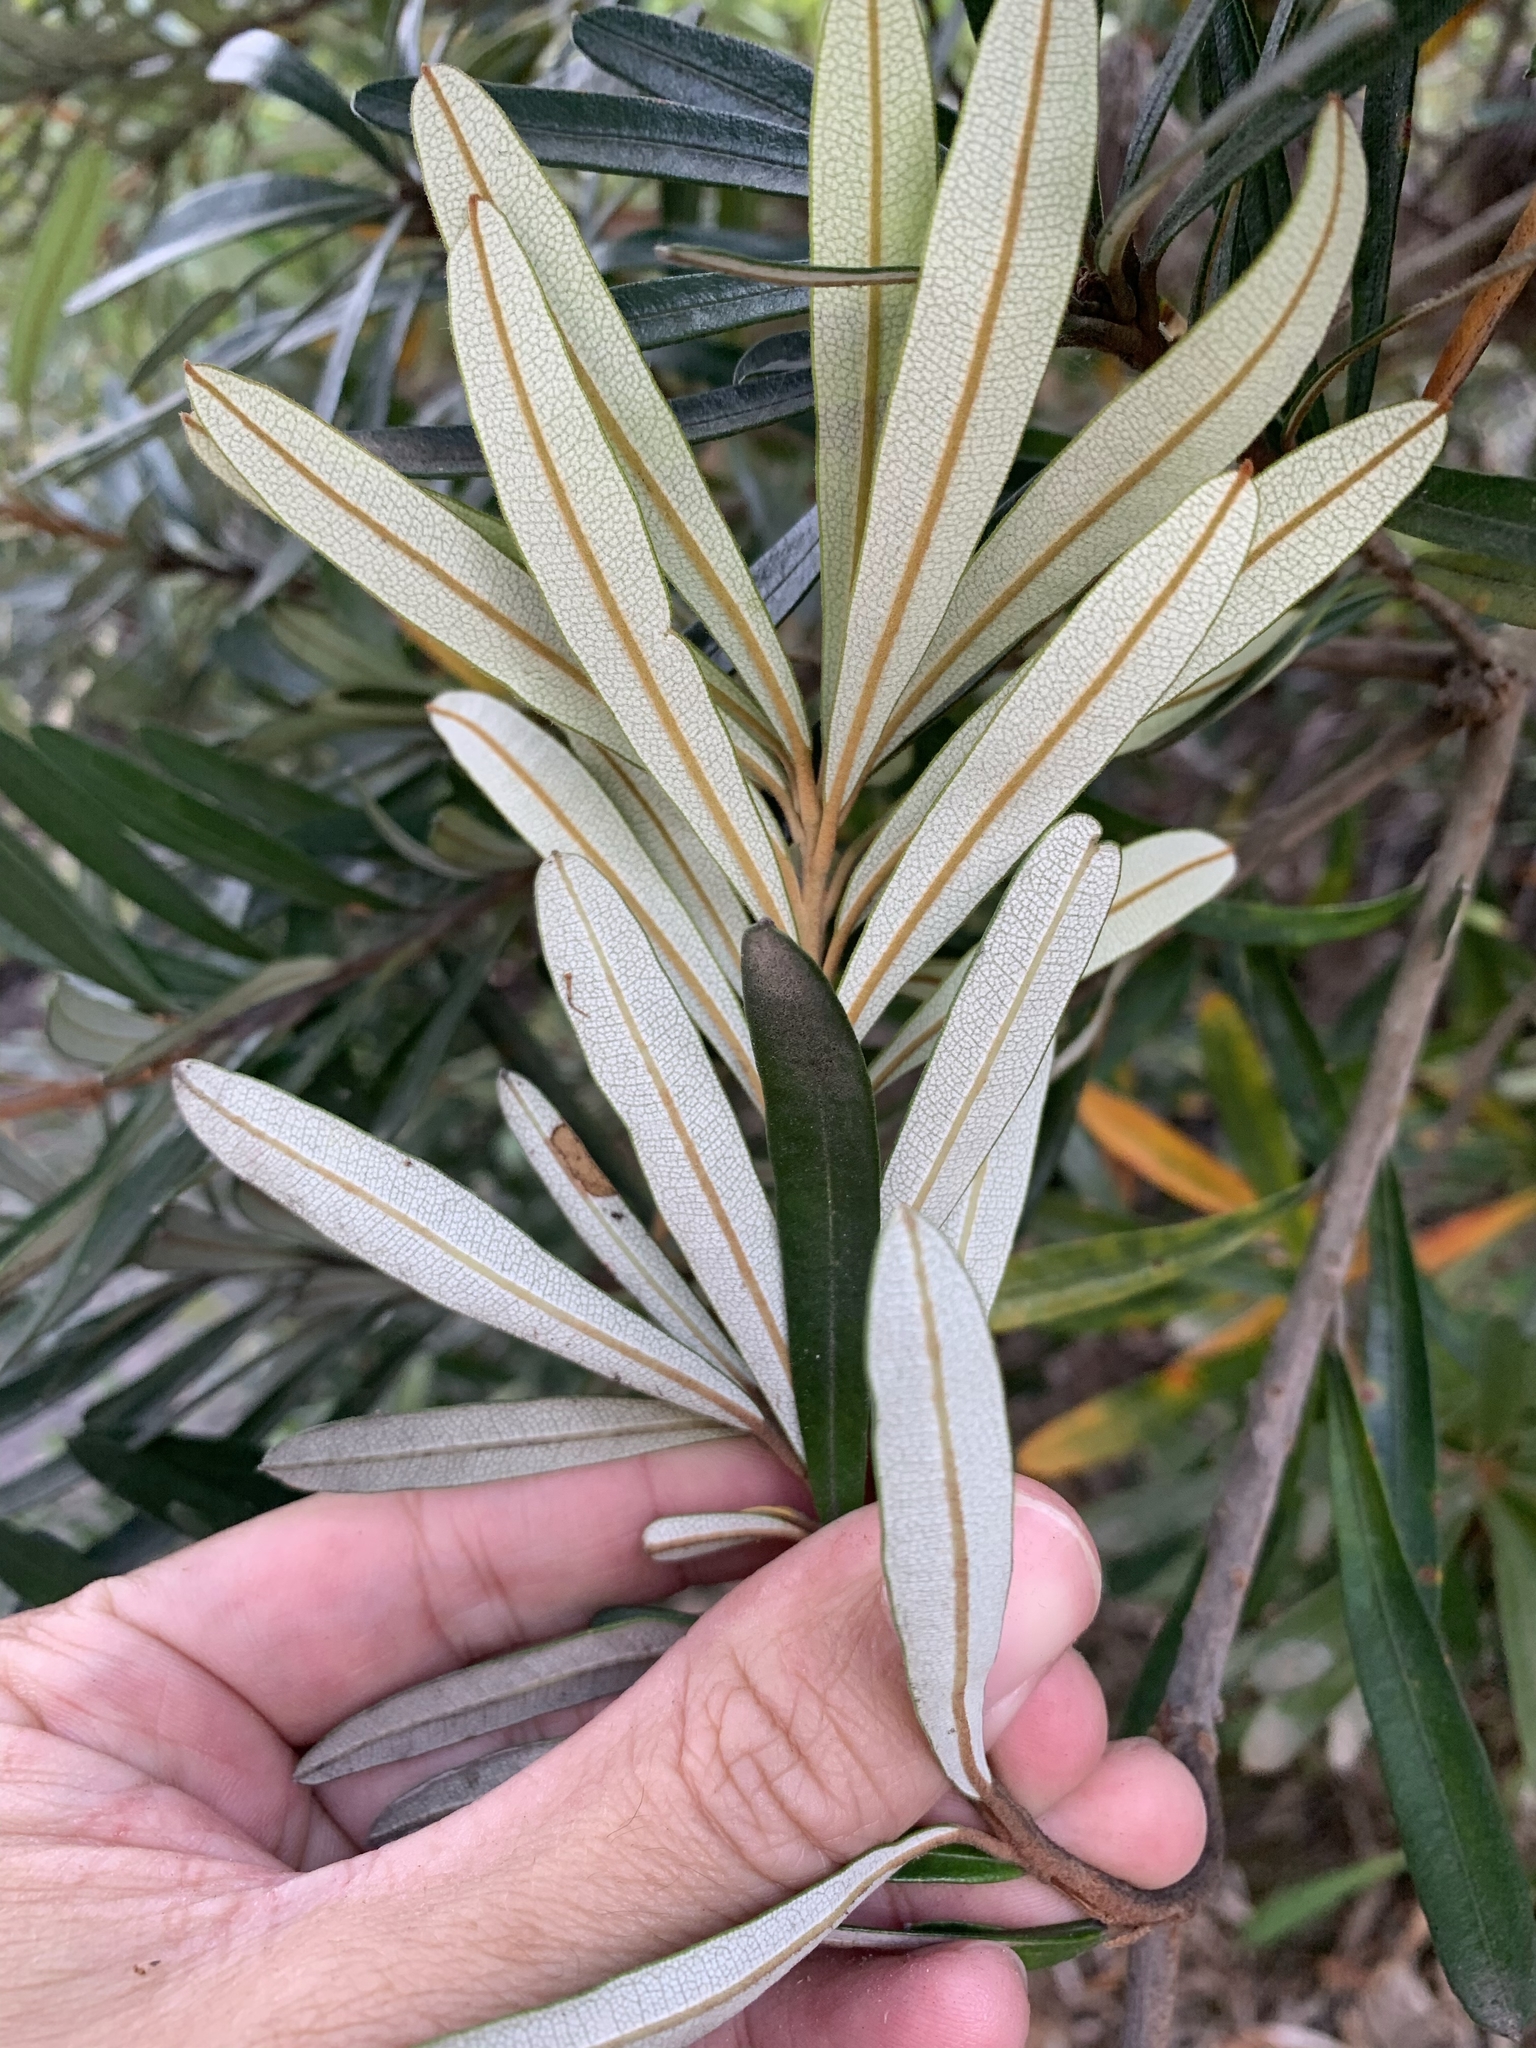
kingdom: Plantae
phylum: Tracheophyta
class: Magnoliopsida
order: Proteales
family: Proteaceae
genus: Banksia
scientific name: Banksia integrifolia
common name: White-honeysuckle
